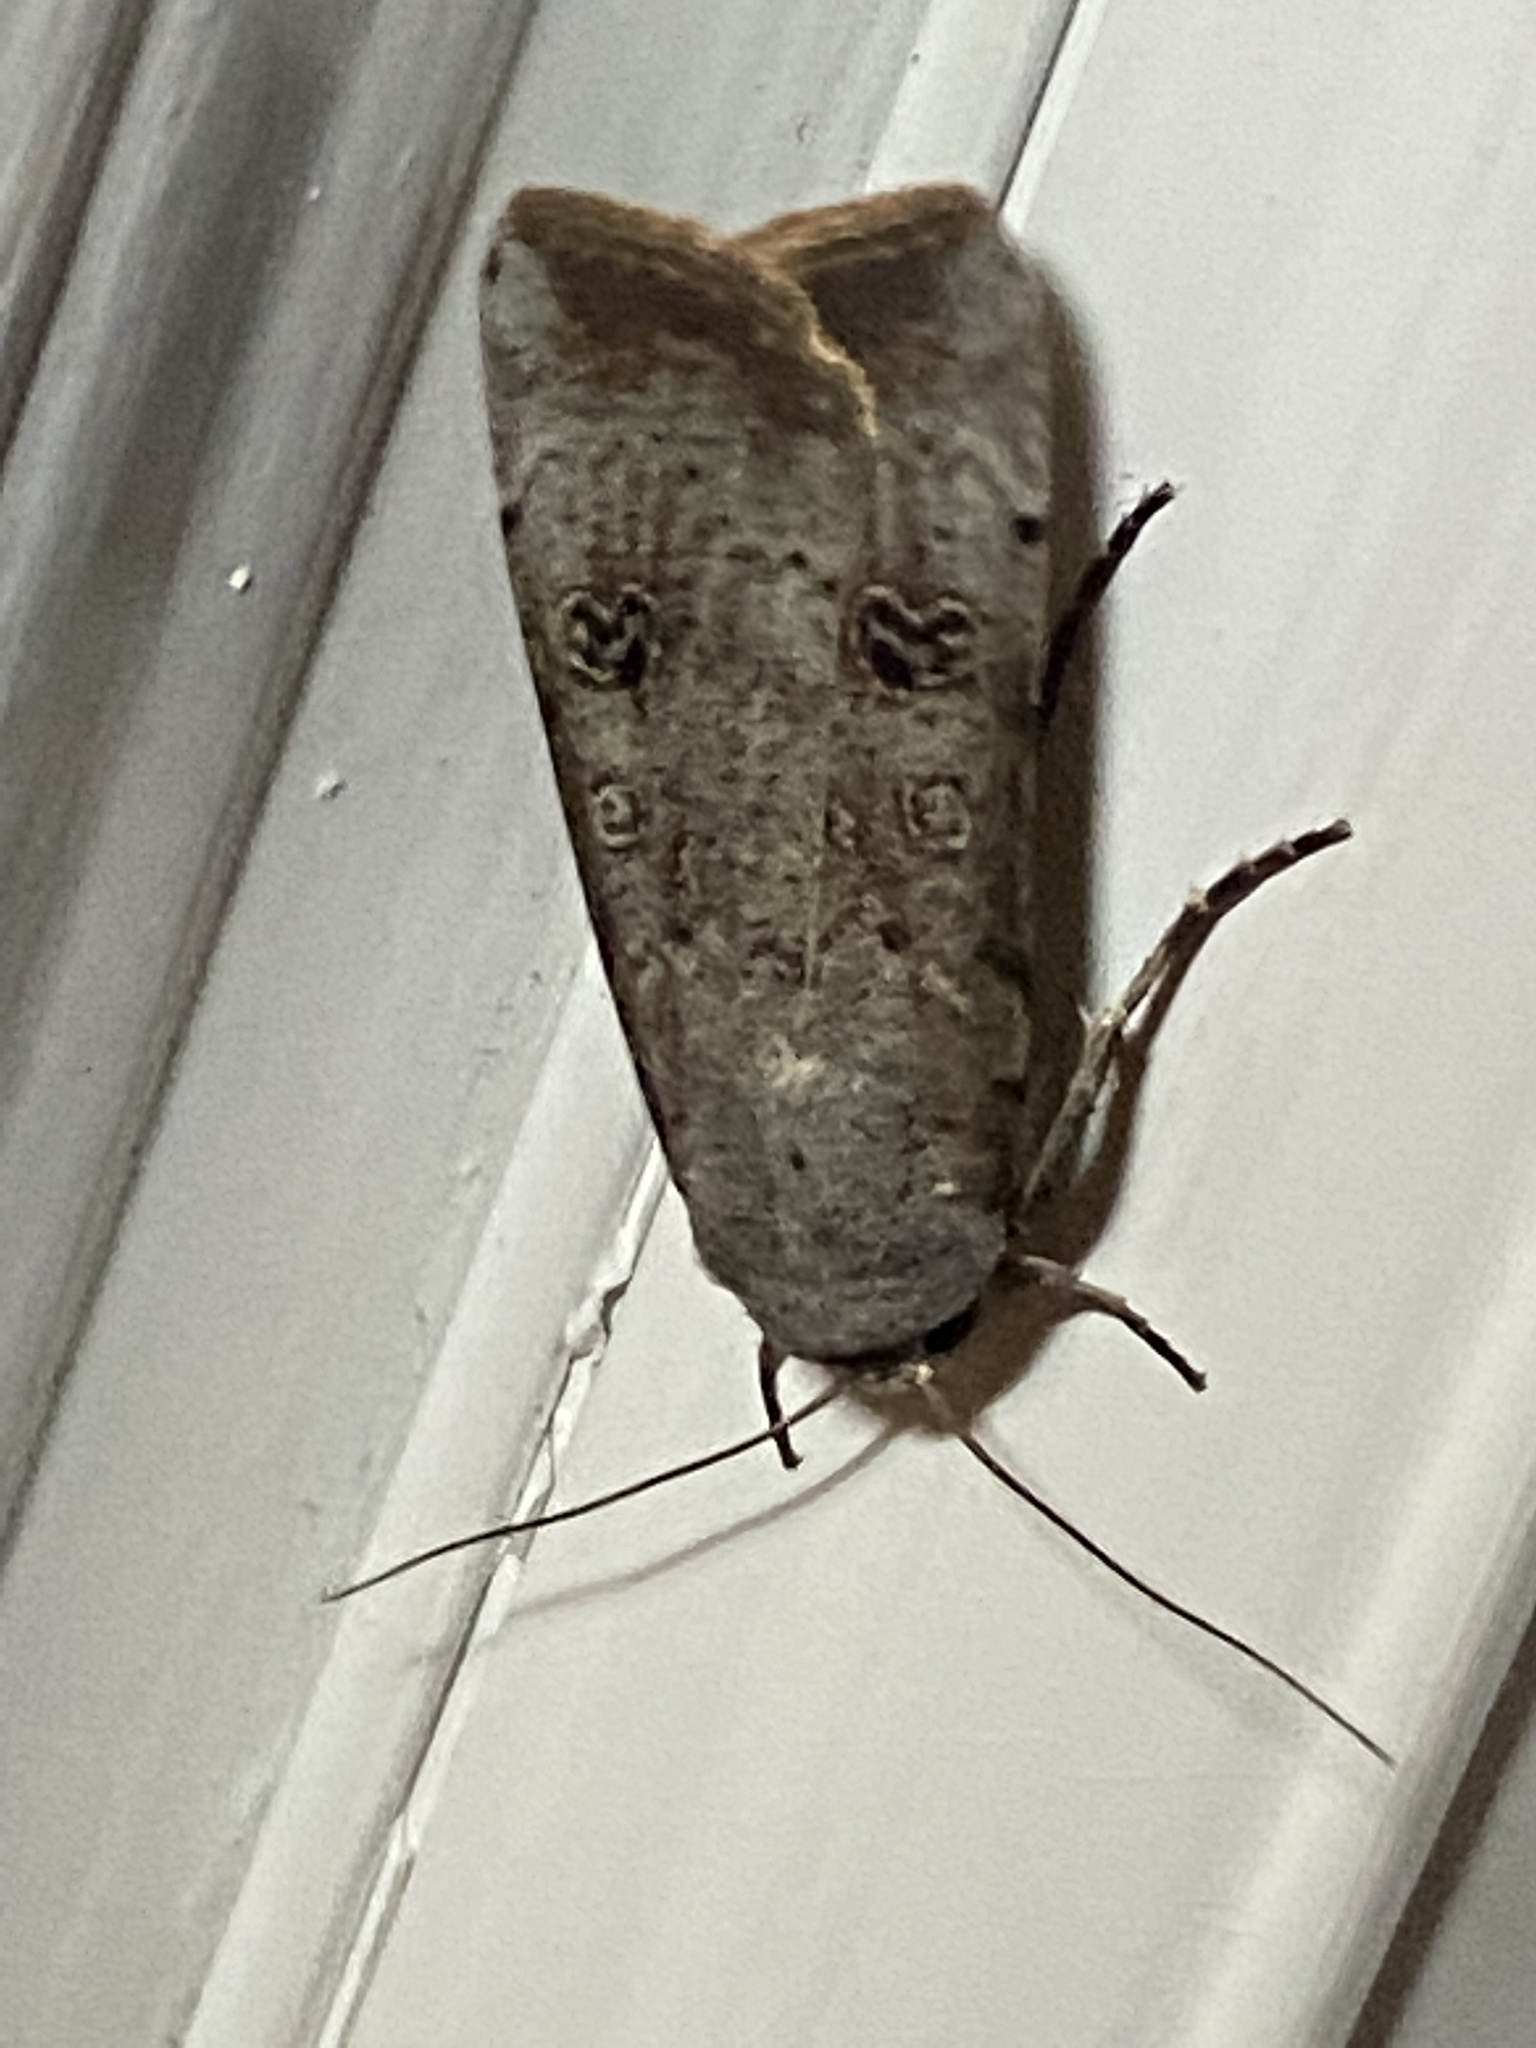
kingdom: Animalia
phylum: Arthropoda
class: Insecta
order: Lepidoptera
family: Noctuidae
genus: Anicla
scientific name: Anicla infecta
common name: Green cutworm
